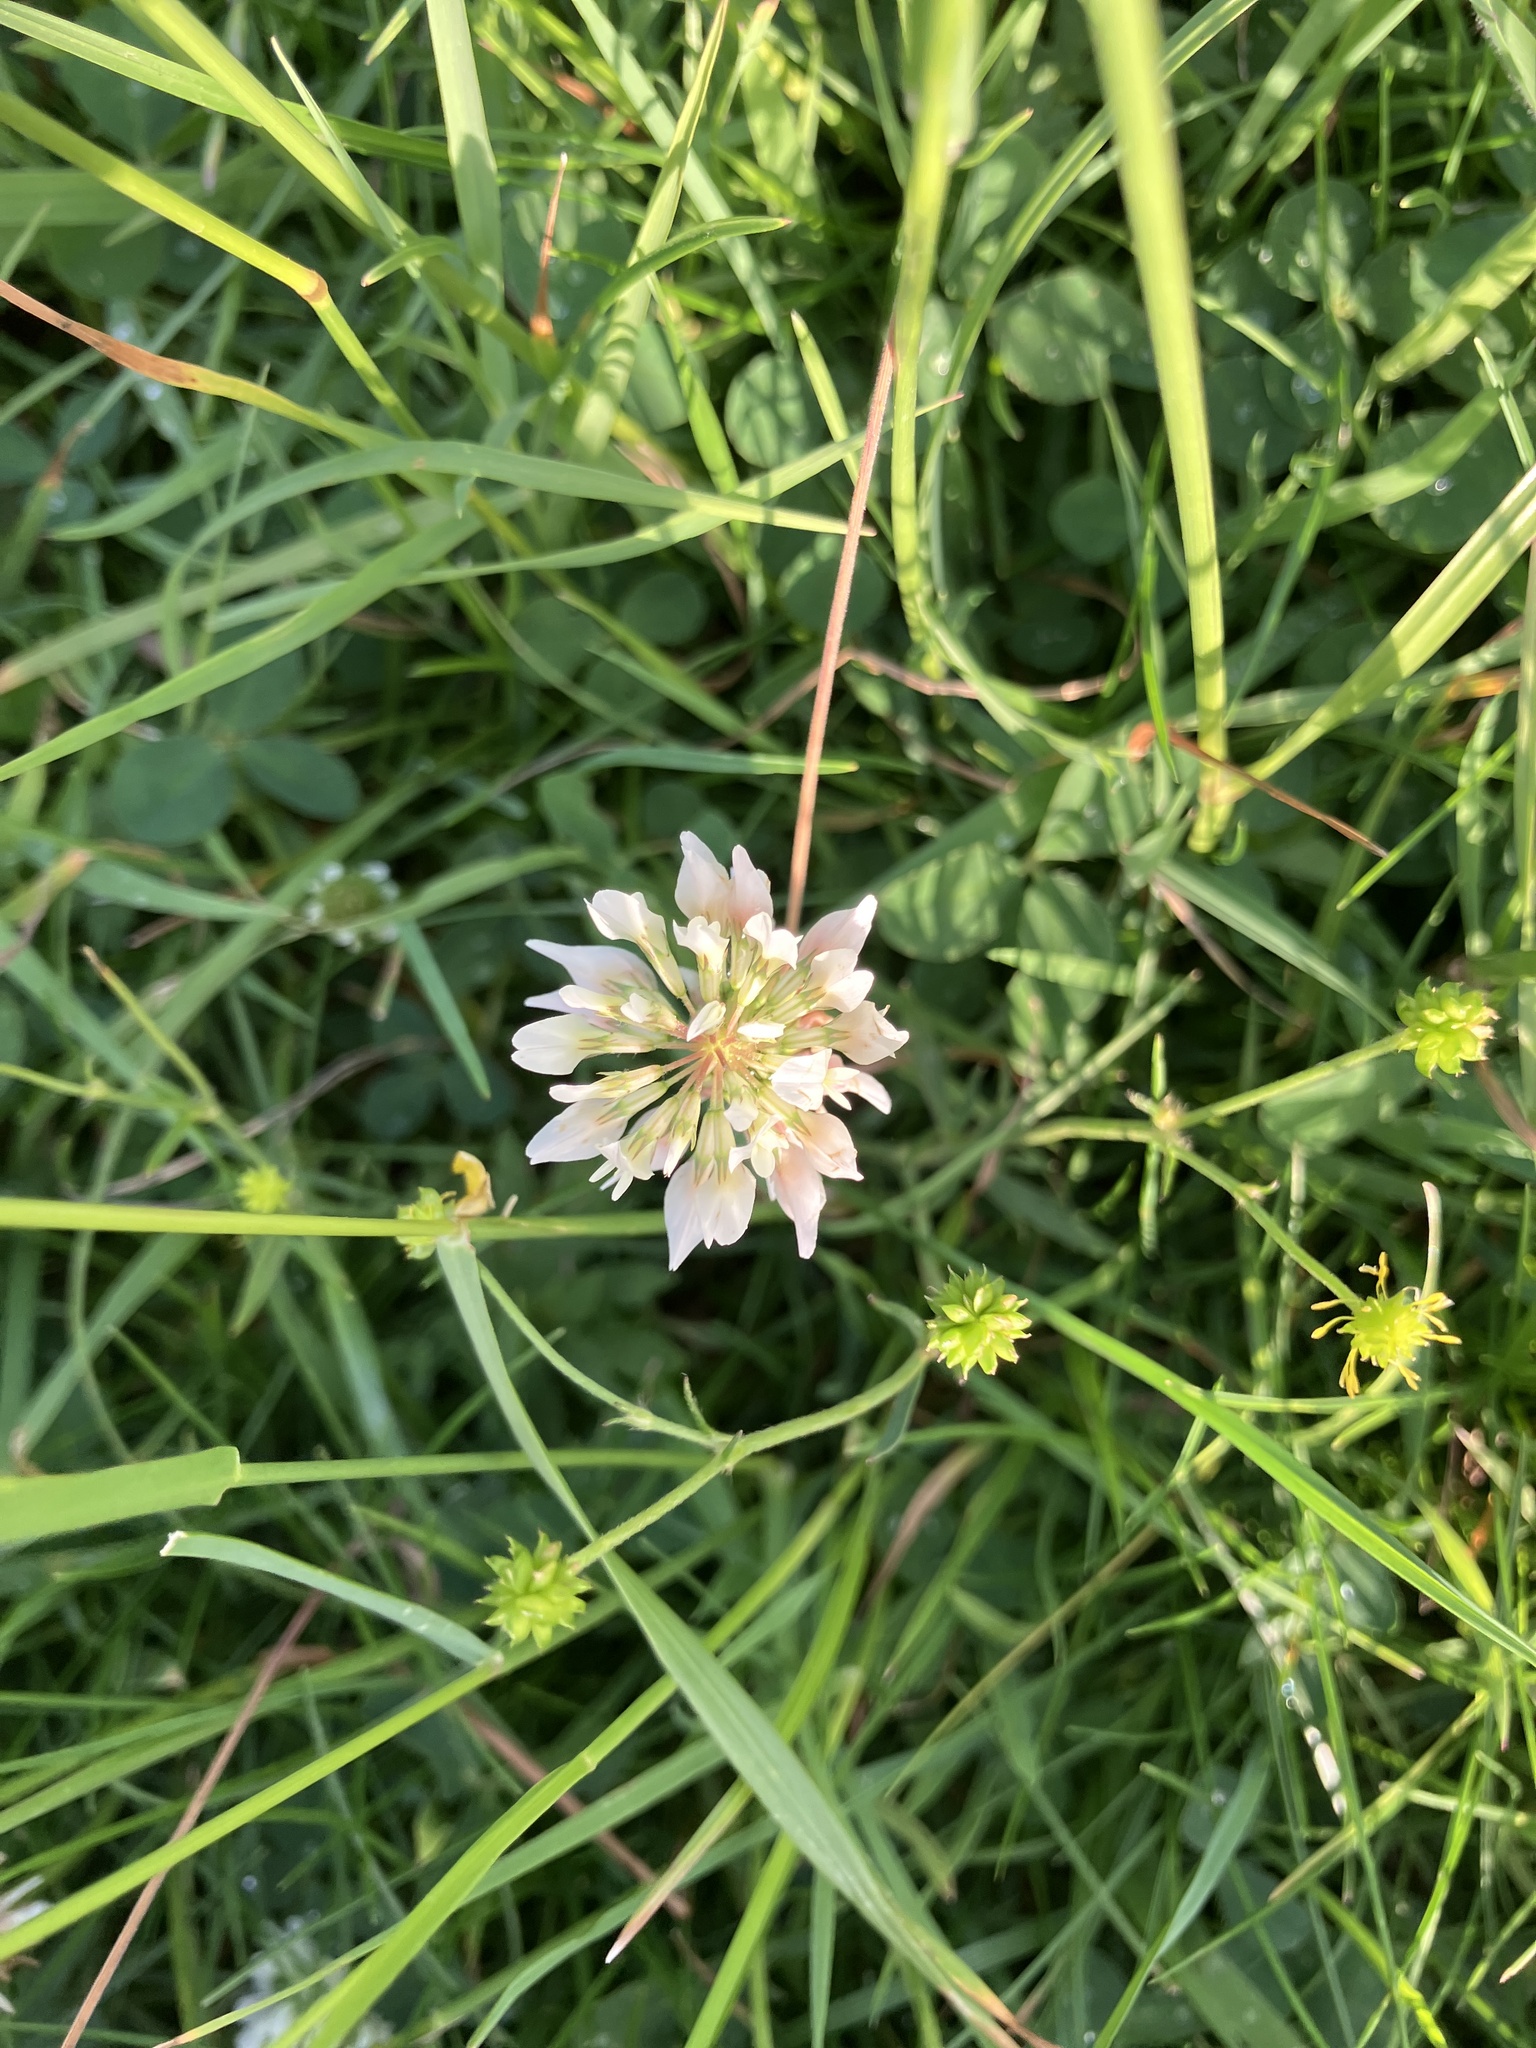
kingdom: Plantae
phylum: Tracheophyta
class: Magnoliopsida
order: Fabales
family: Fabaceae
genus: Trifolium
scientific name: Trifolium repens
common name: White clover
